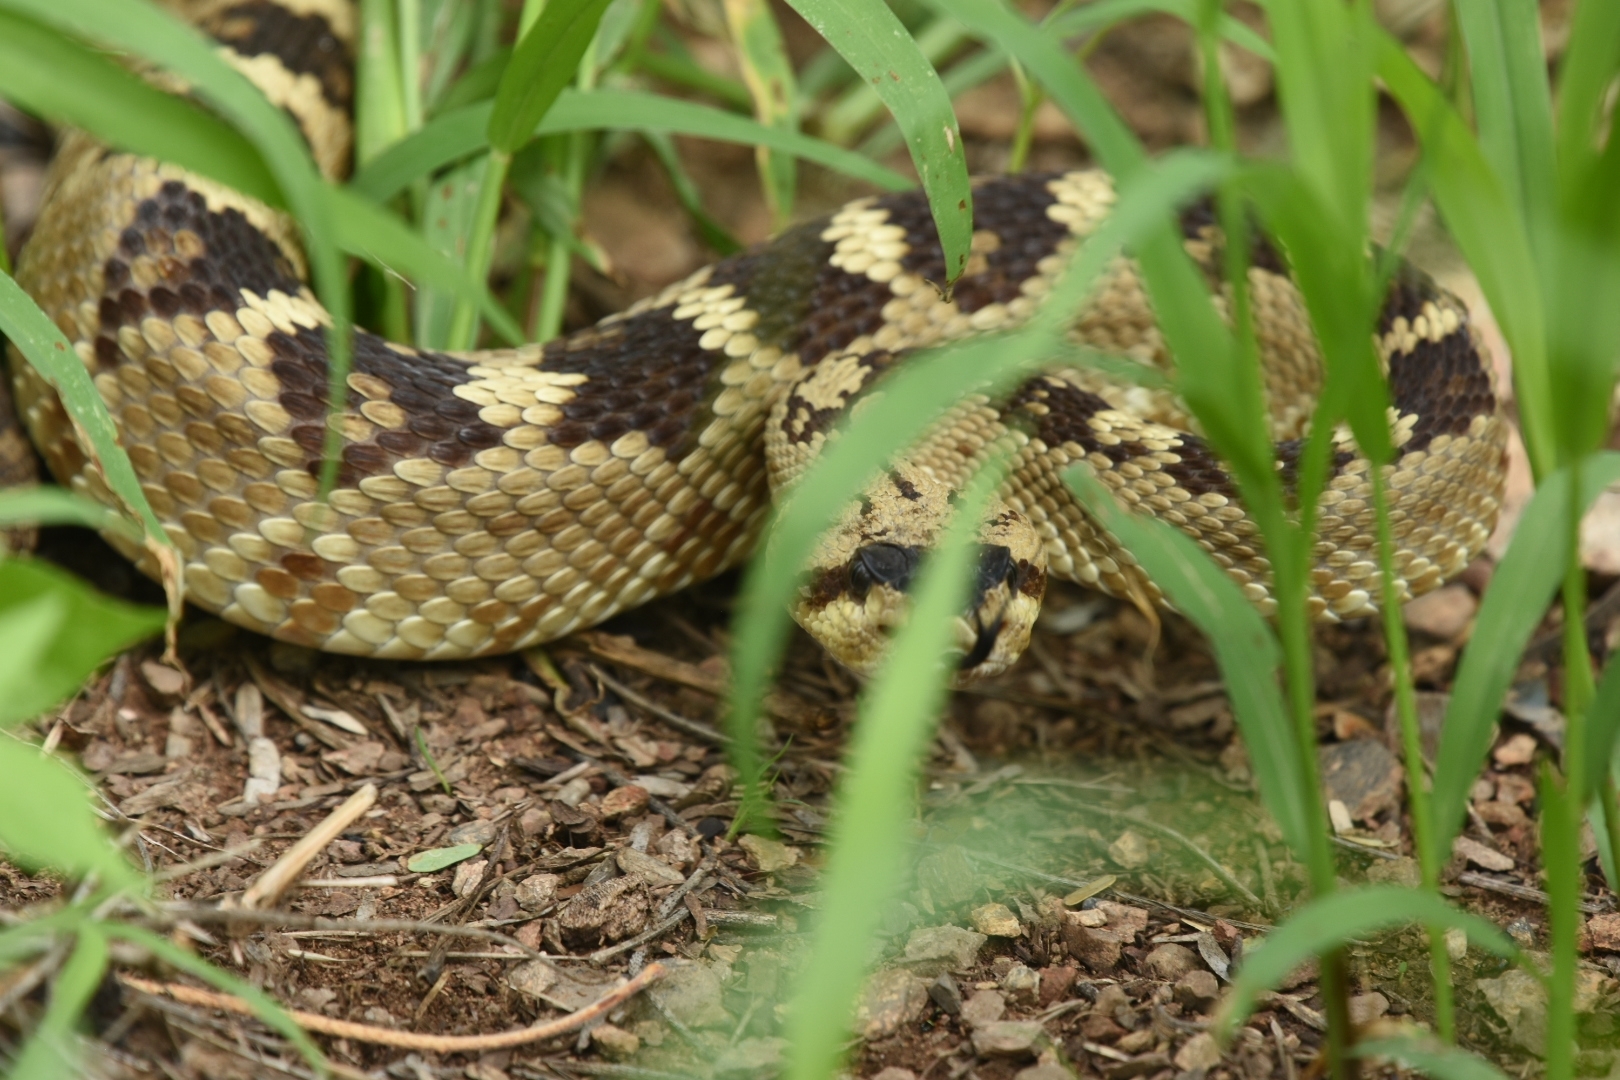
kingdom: Animalia
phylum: Chordata
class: Squamata
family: Viperidae
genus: Crotalus
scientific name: Crotalus molossus
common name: Black tailed rattlesnake
